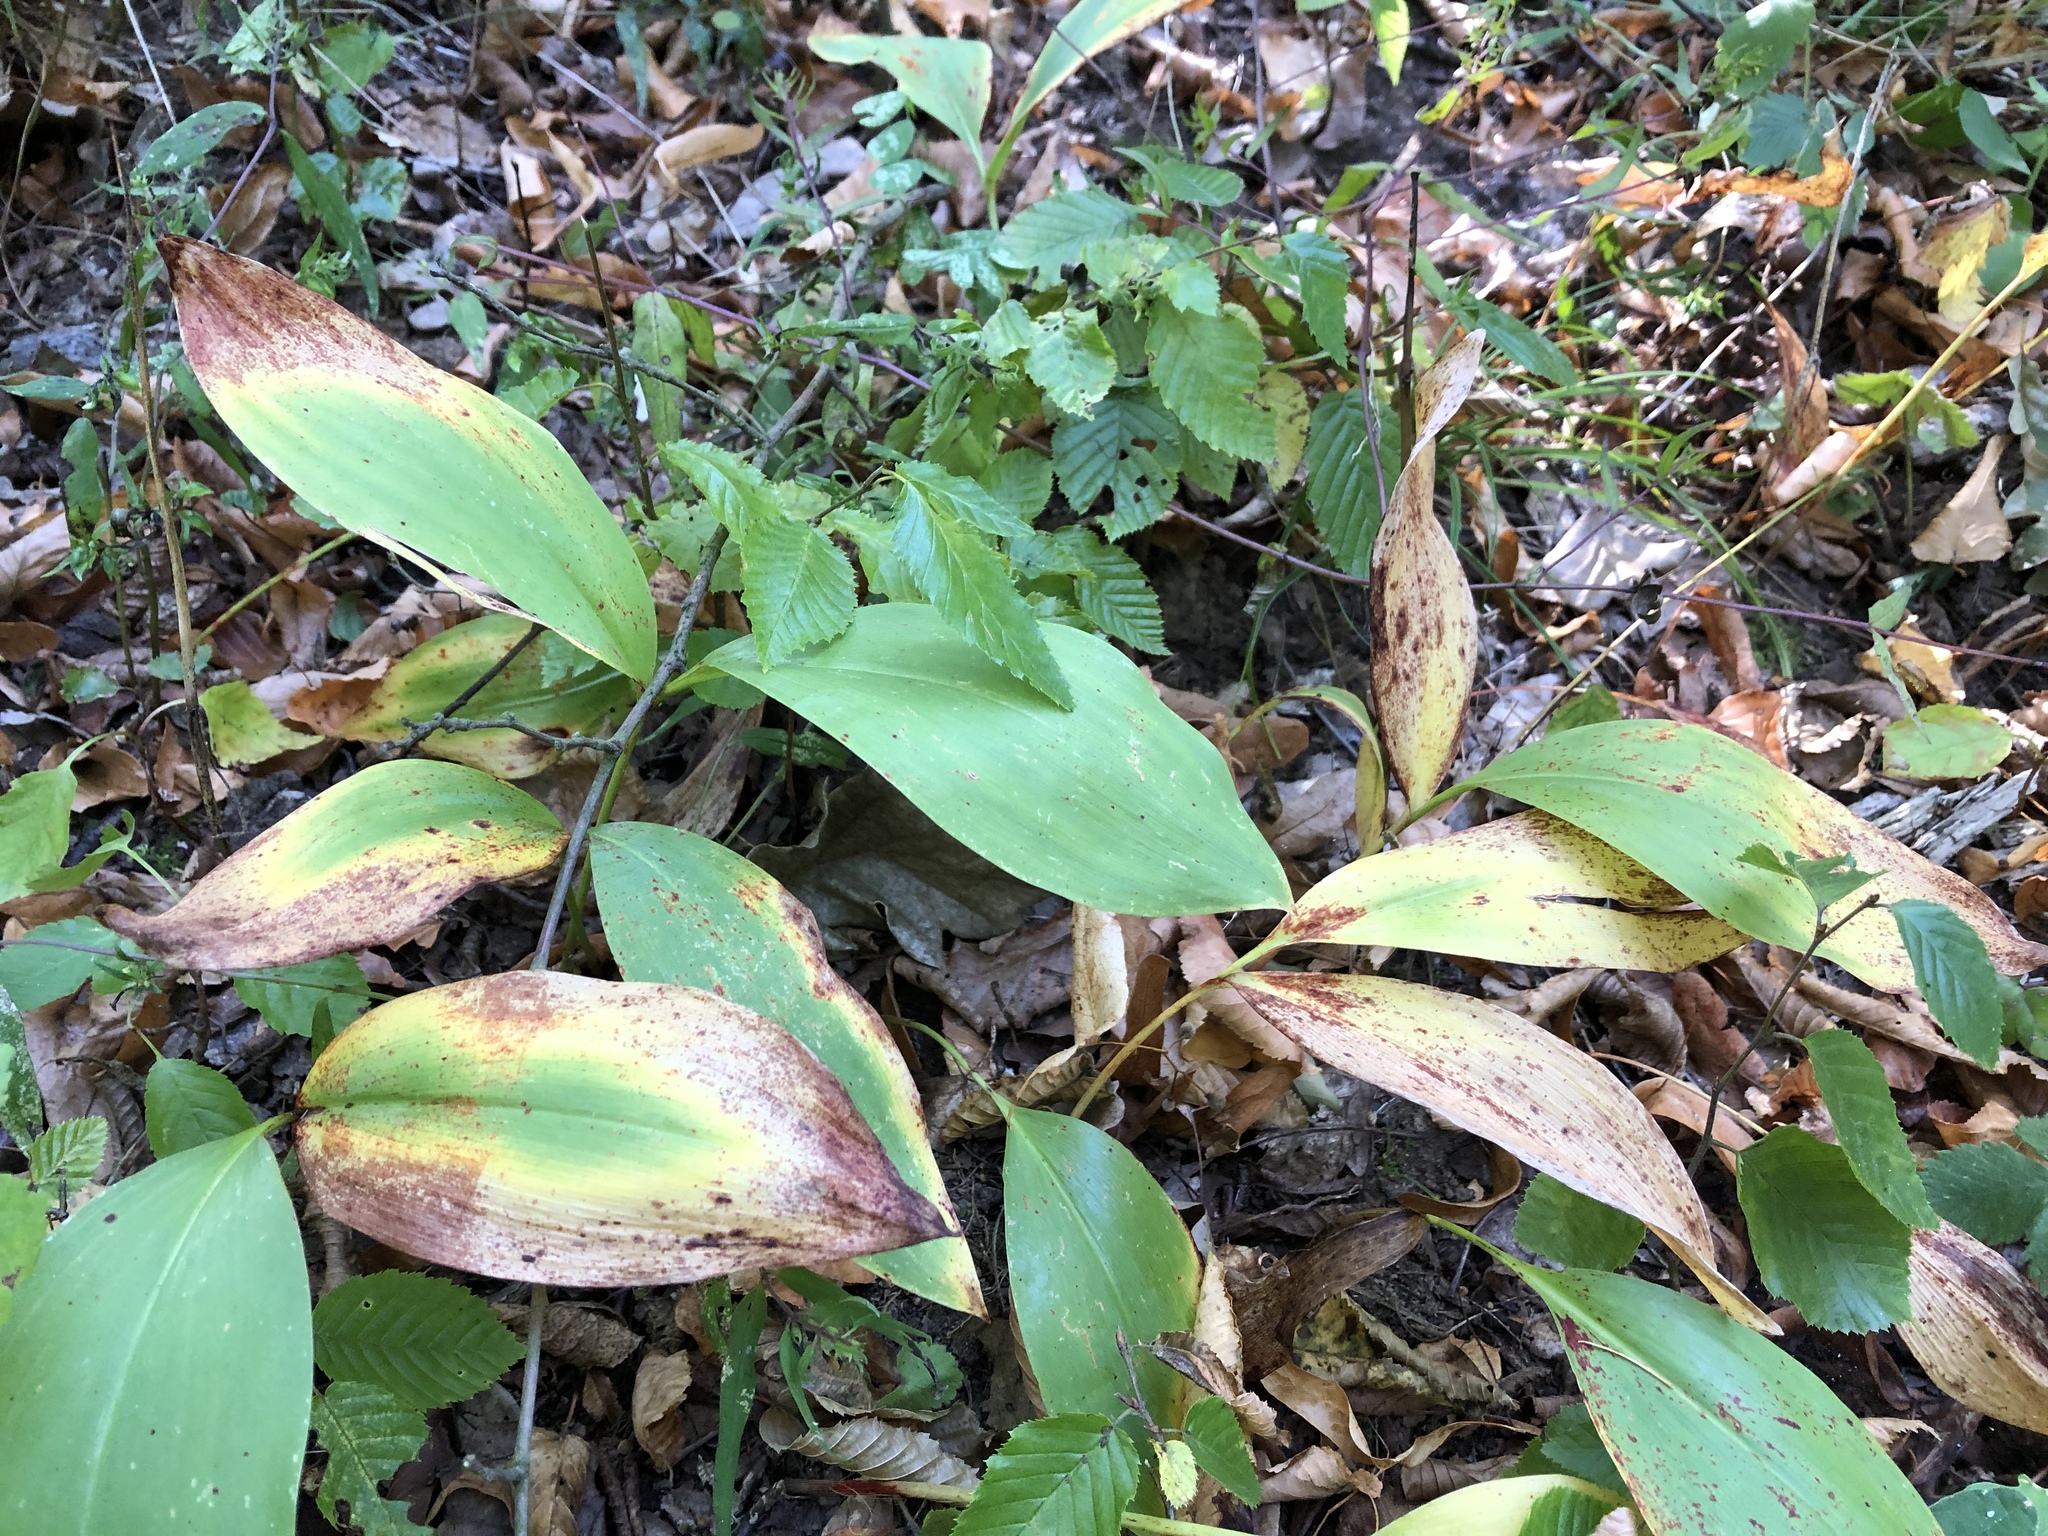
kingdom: Plantae
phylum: Tracheophyta
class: Liliopsida
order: Asparagales
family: Asparagaceae
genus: Convallaria
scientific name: Convallaria majalis
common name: Lily-of-the-valley
